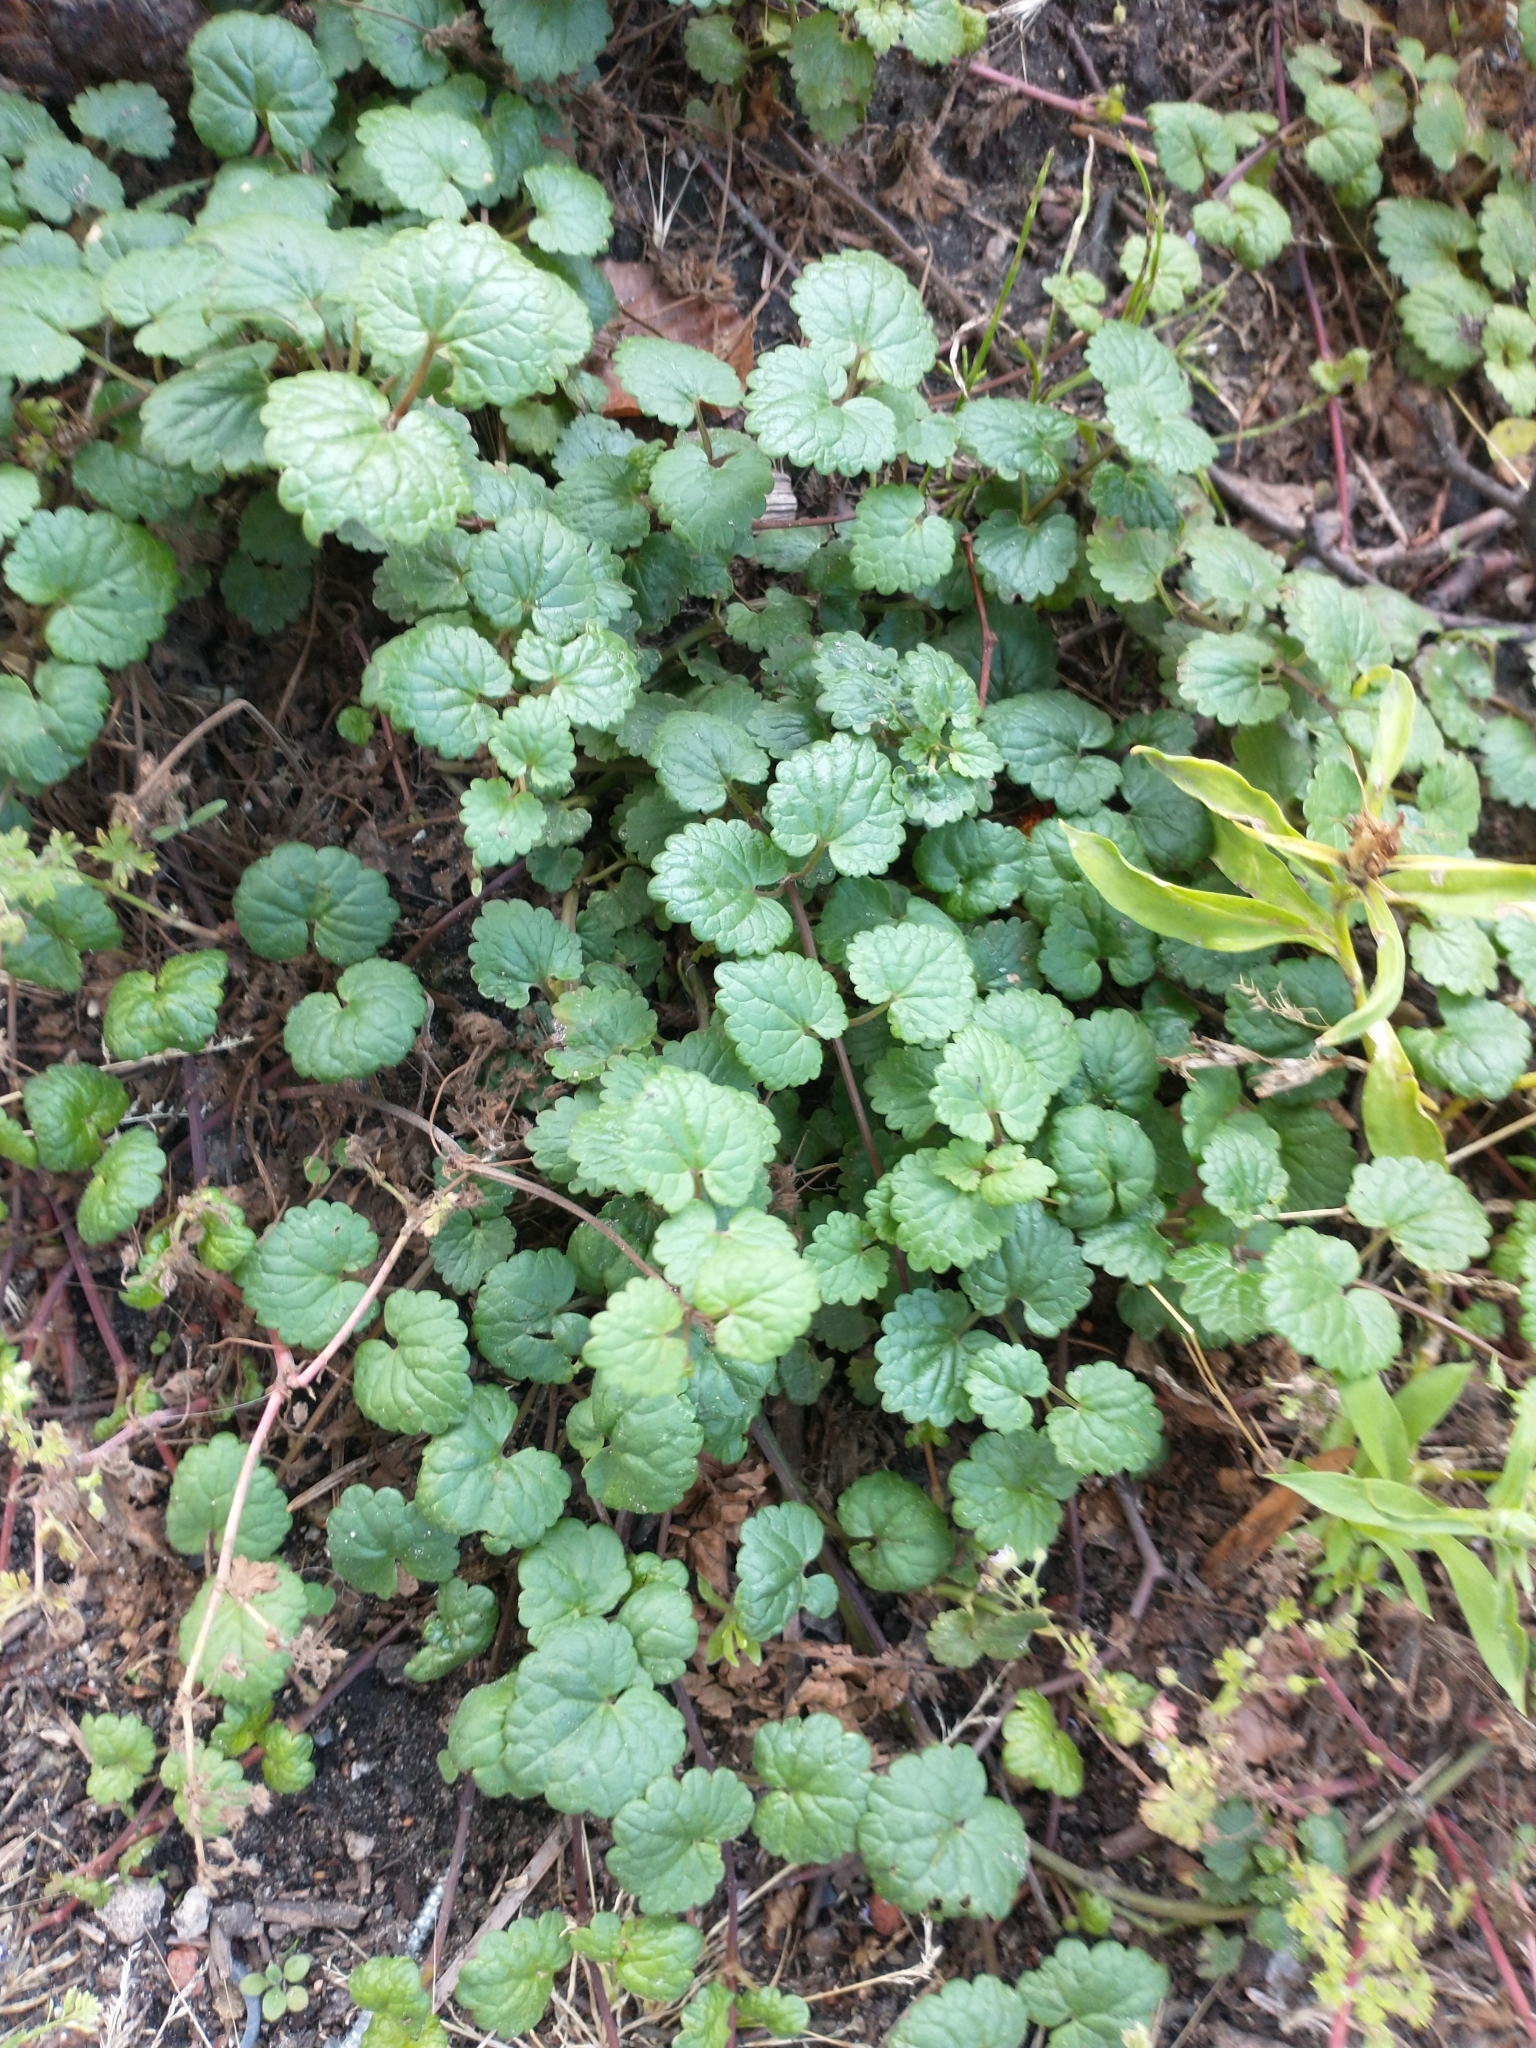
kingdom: Plantae
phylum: Tracheophyta
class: Magnoliopsida
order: Lamiales
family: Lamiaceae
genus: Glechoma
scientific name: Glechoma hederacea
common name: Ground ivy
